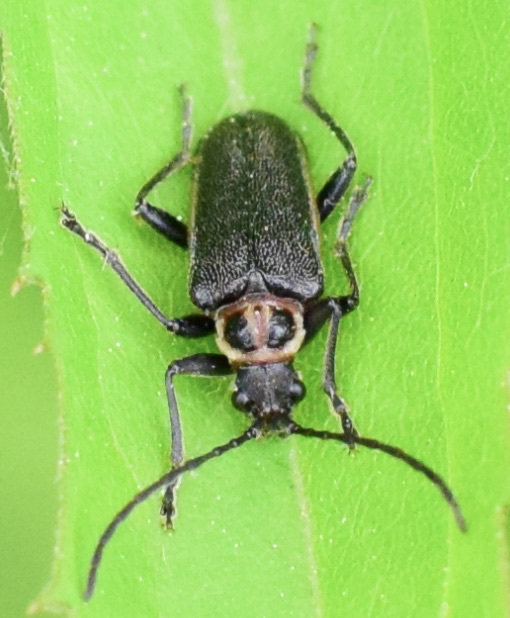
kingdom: Animalia
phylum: Arthropoda
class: Insecta
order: Coleoptera
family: Cerambycidae
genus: Brachysomida
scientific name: Brachysomida bivittata
